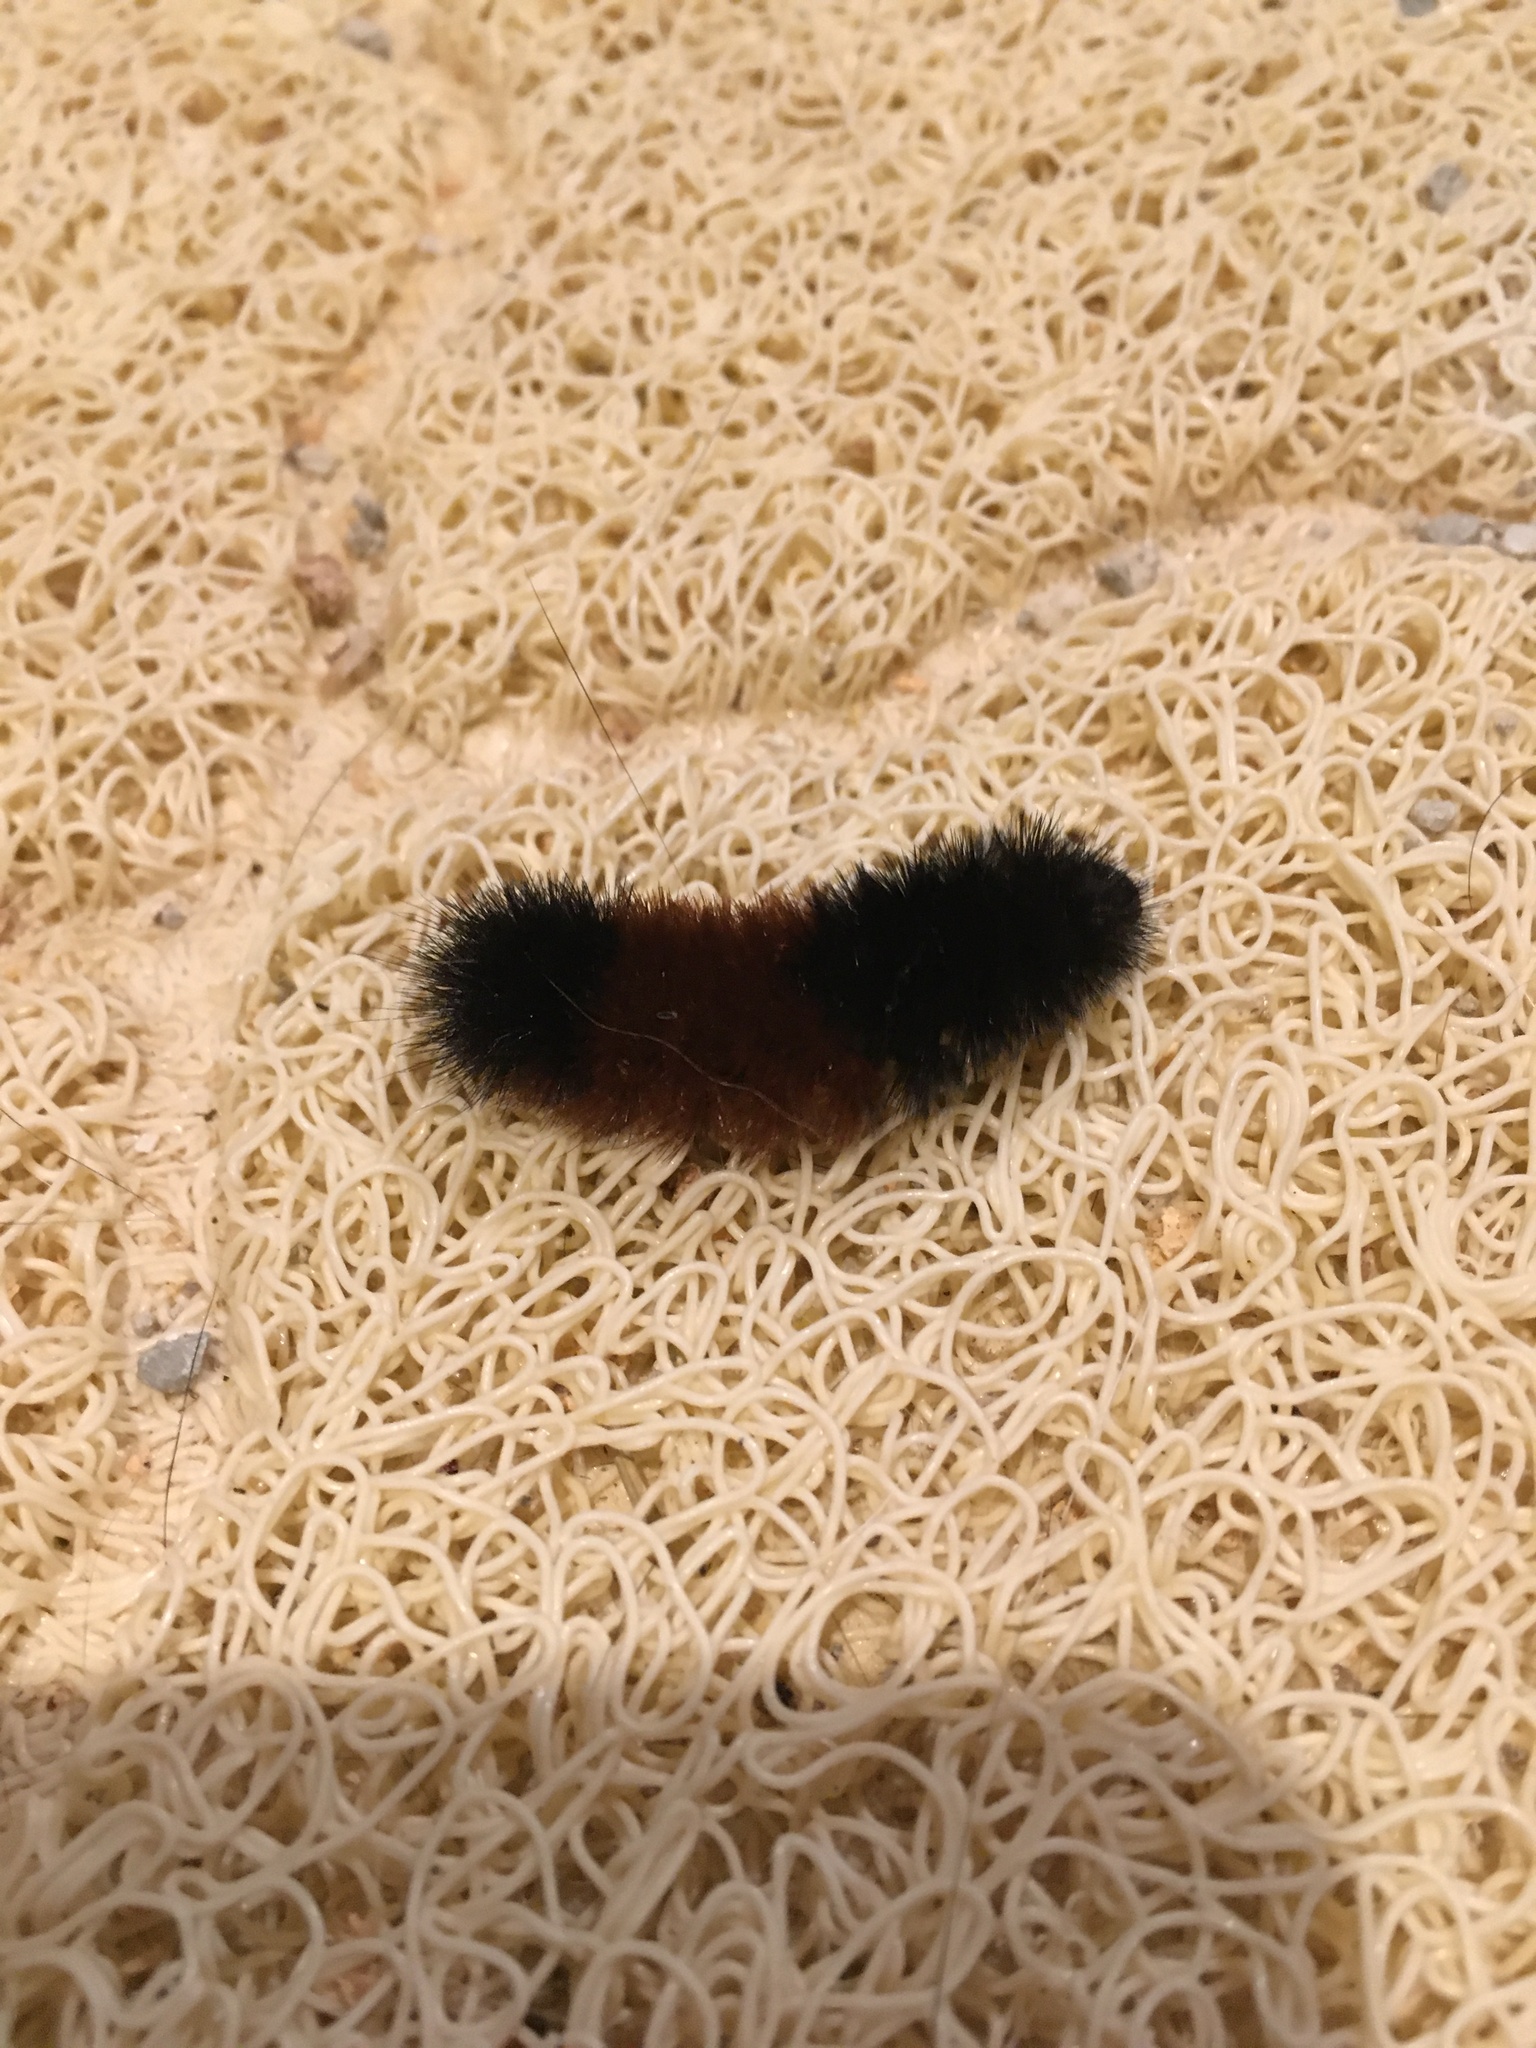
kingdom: Animalia
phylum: Arthropoda
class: Insecta
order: Lepidoptera
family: Erebidae
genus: Pyrrharctia
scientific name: Pyrrharctia isabella
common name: Isabella tiger moth
